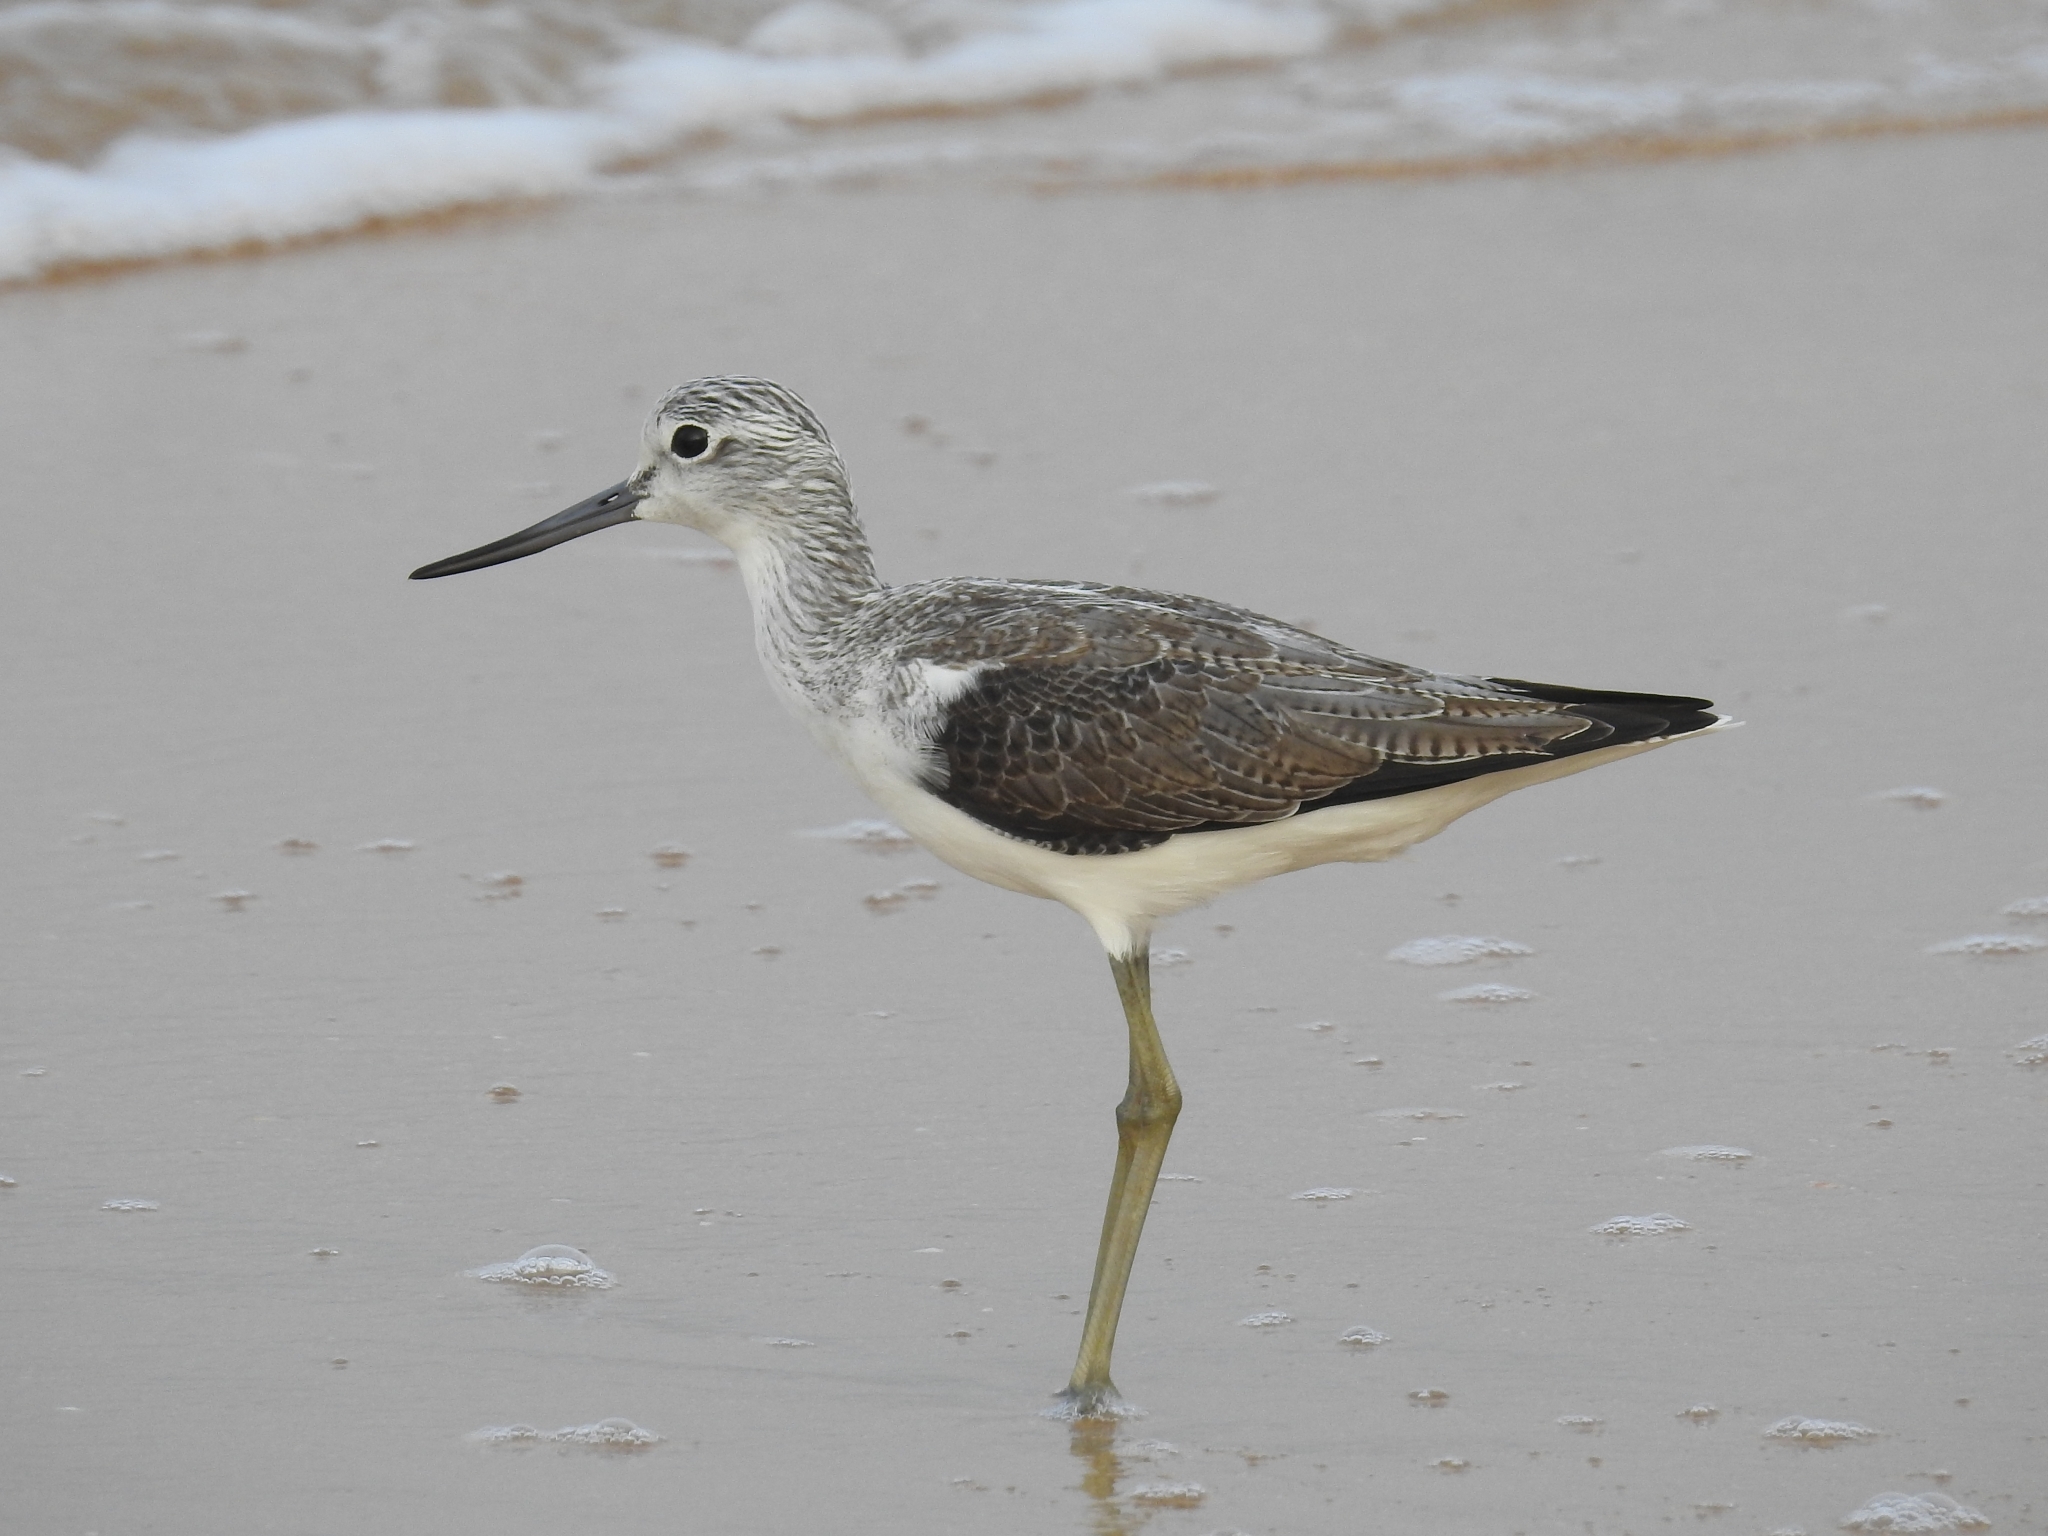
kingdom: Animalia
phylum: Chordata
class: Aves
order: Charadriiformes
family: Scolopacidae
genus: Tringa
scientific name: Tringa nebularia
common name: Common greenshank
